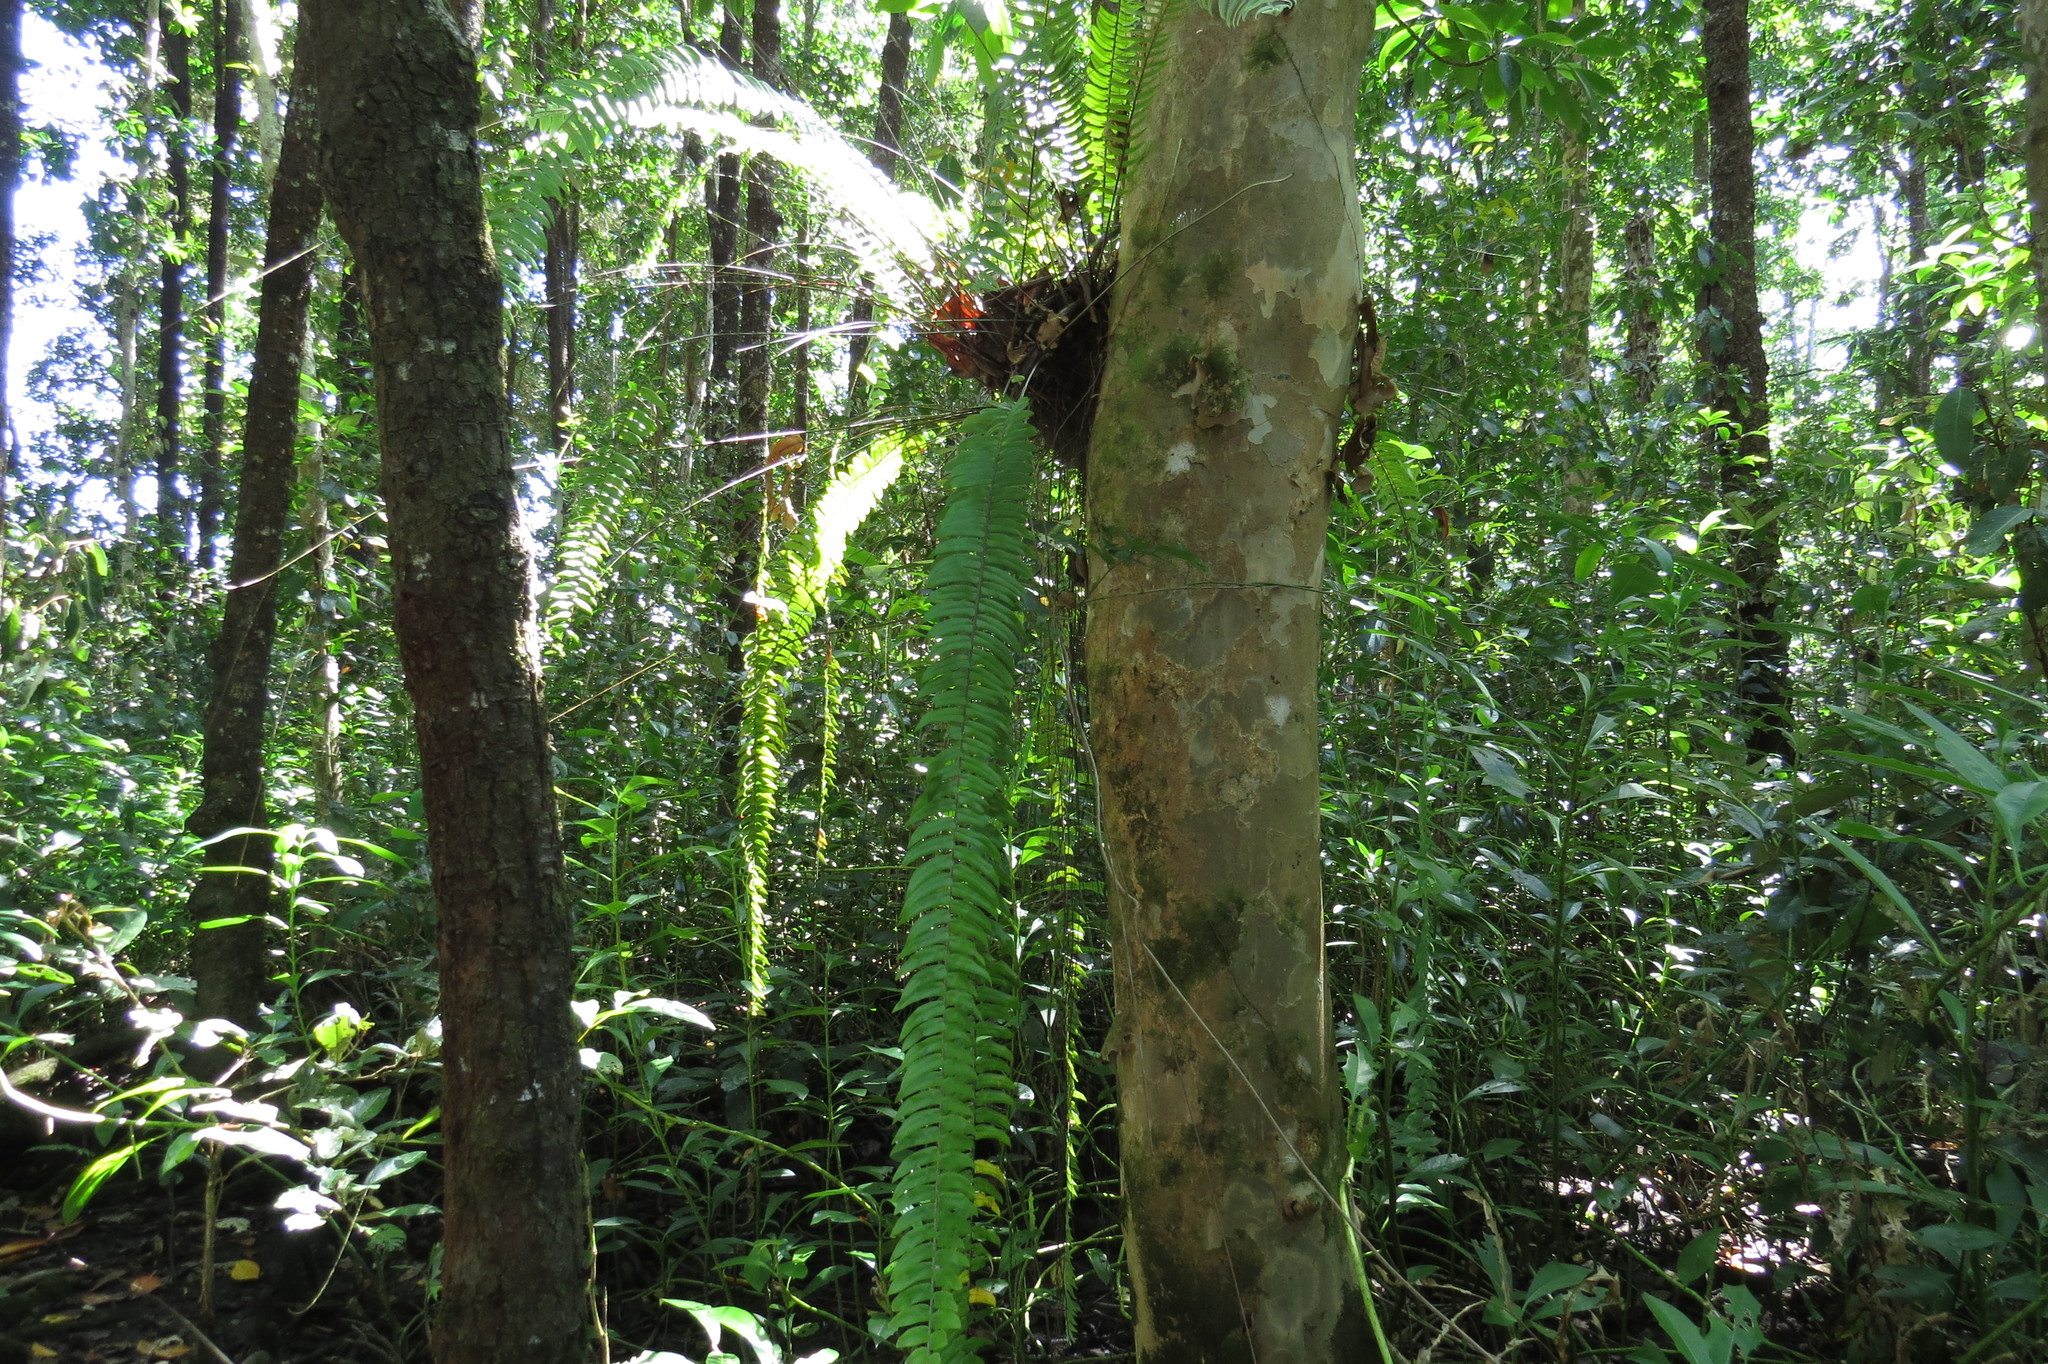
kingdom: Plantae
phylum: Tracheophyta
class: Polypodiopsida
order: Polypodiales
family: Nephrolepidaceae
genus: Nephrolepis
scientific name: Nephrolepis acutifolia
